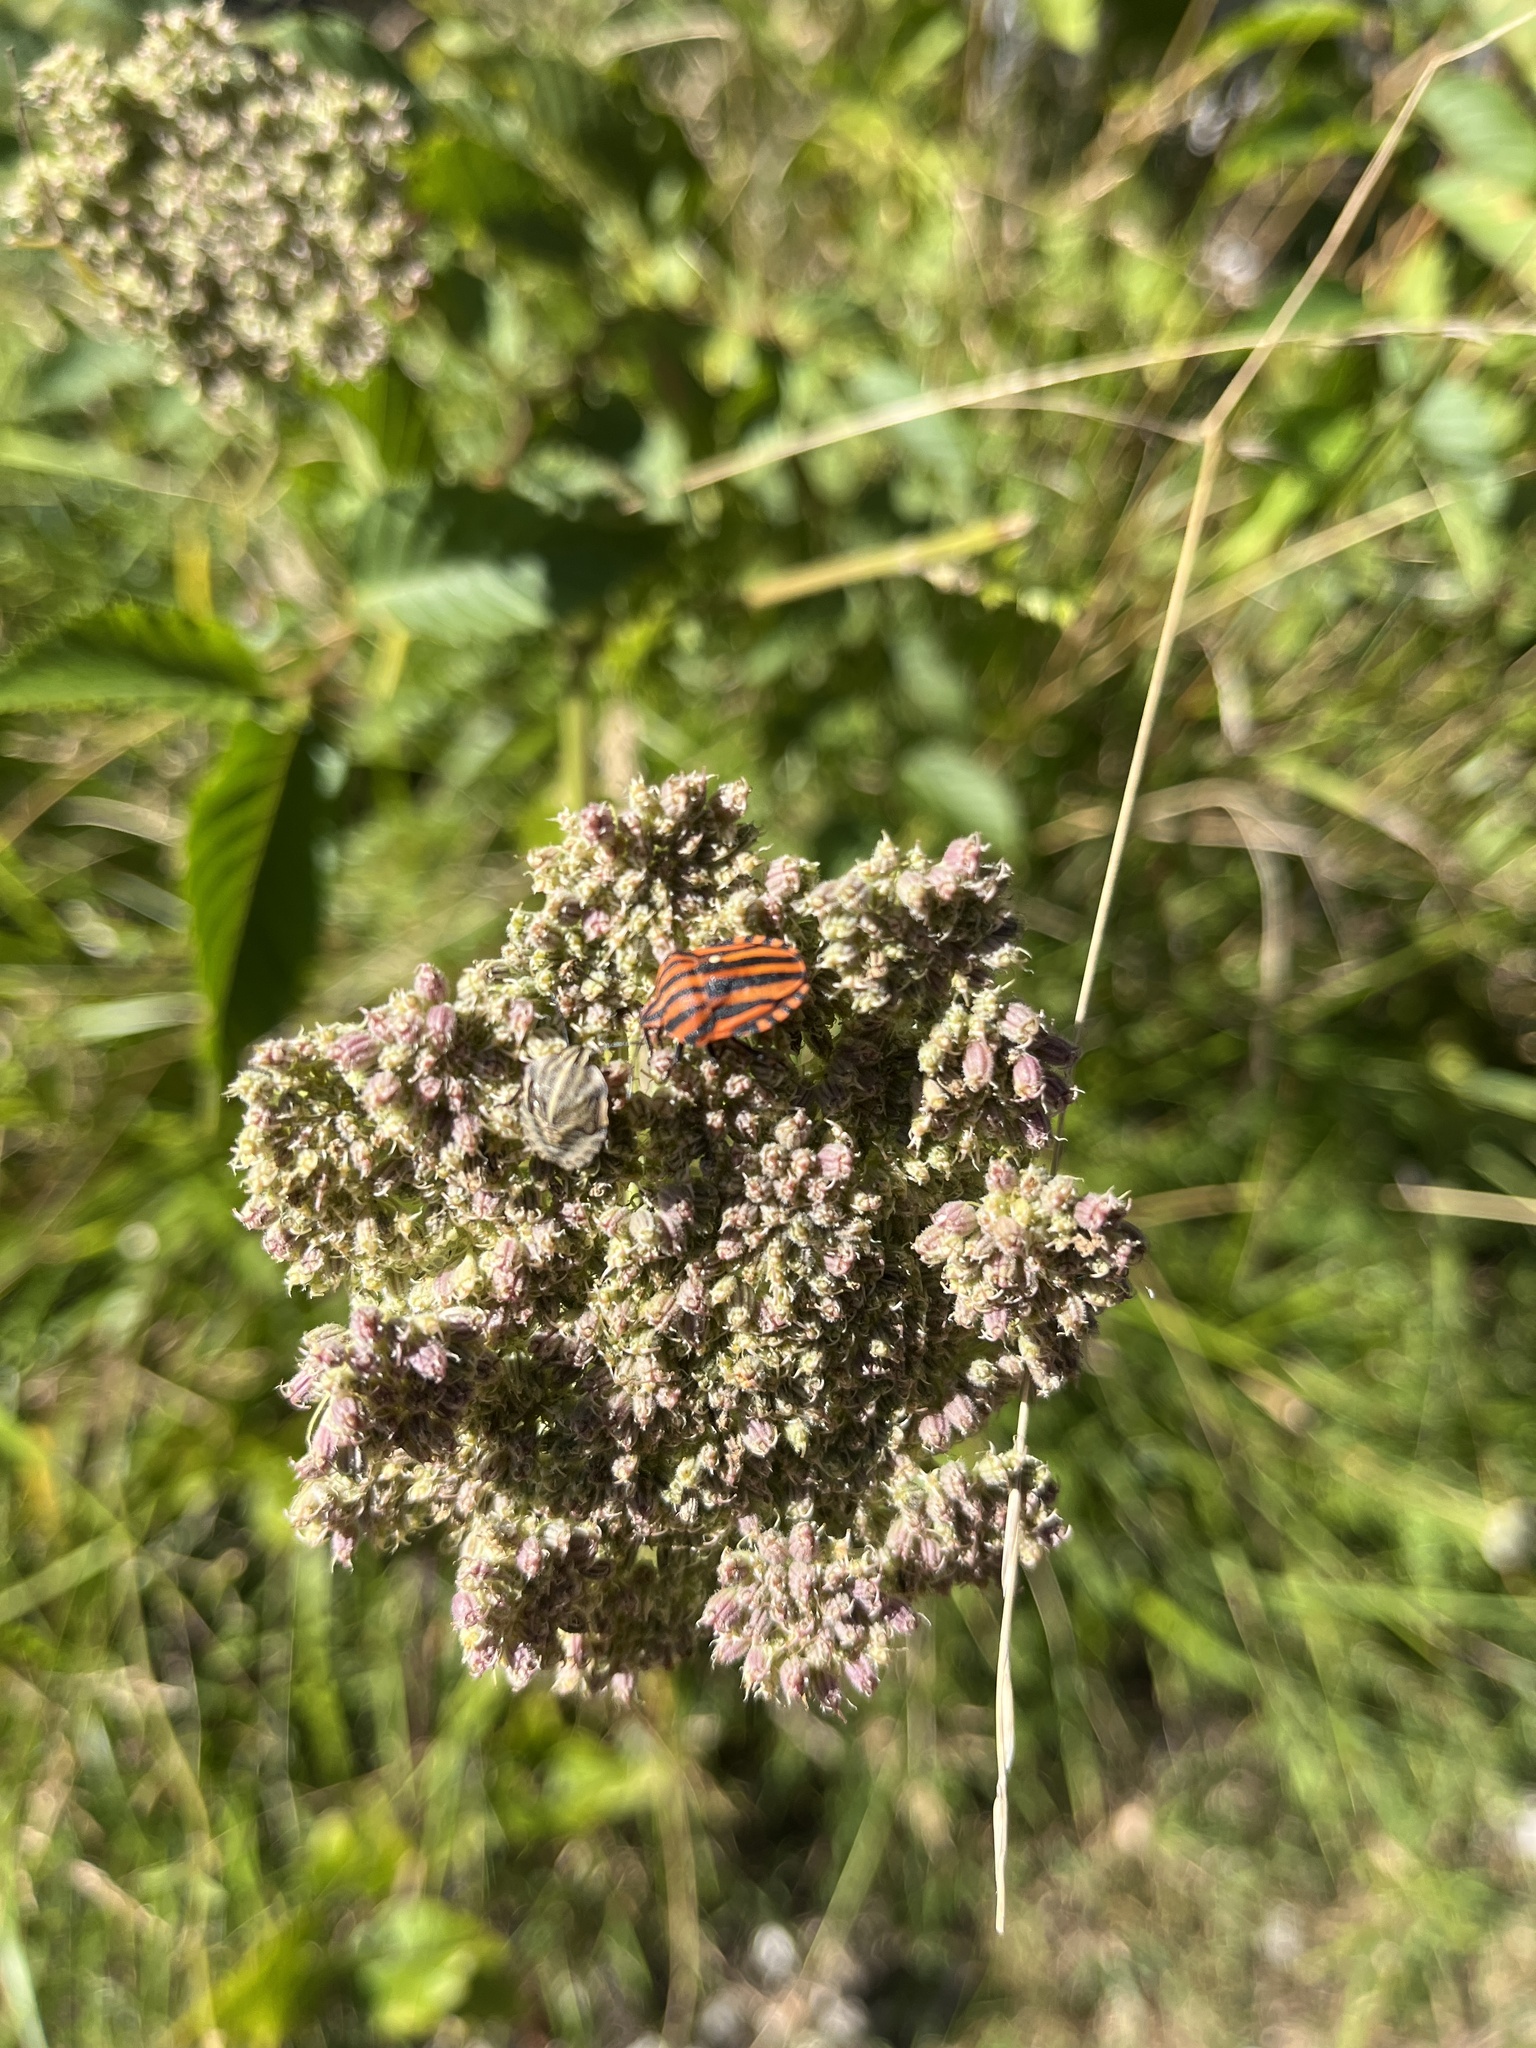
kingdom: Animalia
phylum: Arthropoda
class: Insecta
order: Hemiptera
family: Pentatomidae
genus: Graphosoma
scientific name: Graphosoma italicum
